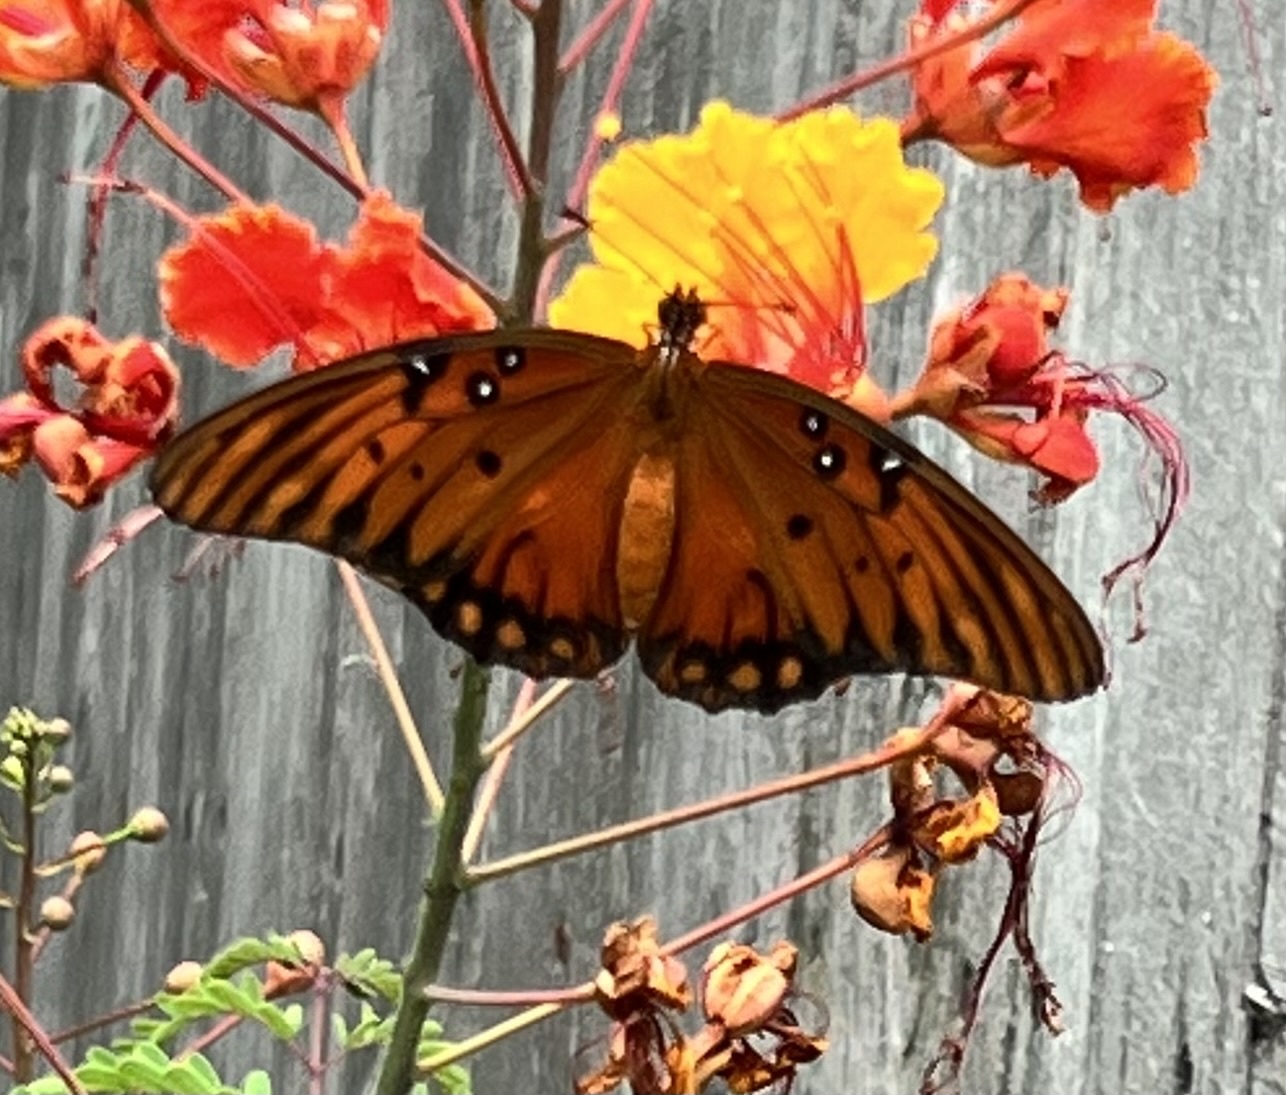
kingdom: Animalia
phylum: Arthropoda
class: Insecta
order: Lepidoptera
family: Nymphalidae
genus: Dione
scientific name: Dione vanillae
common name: Gulf fritillary
